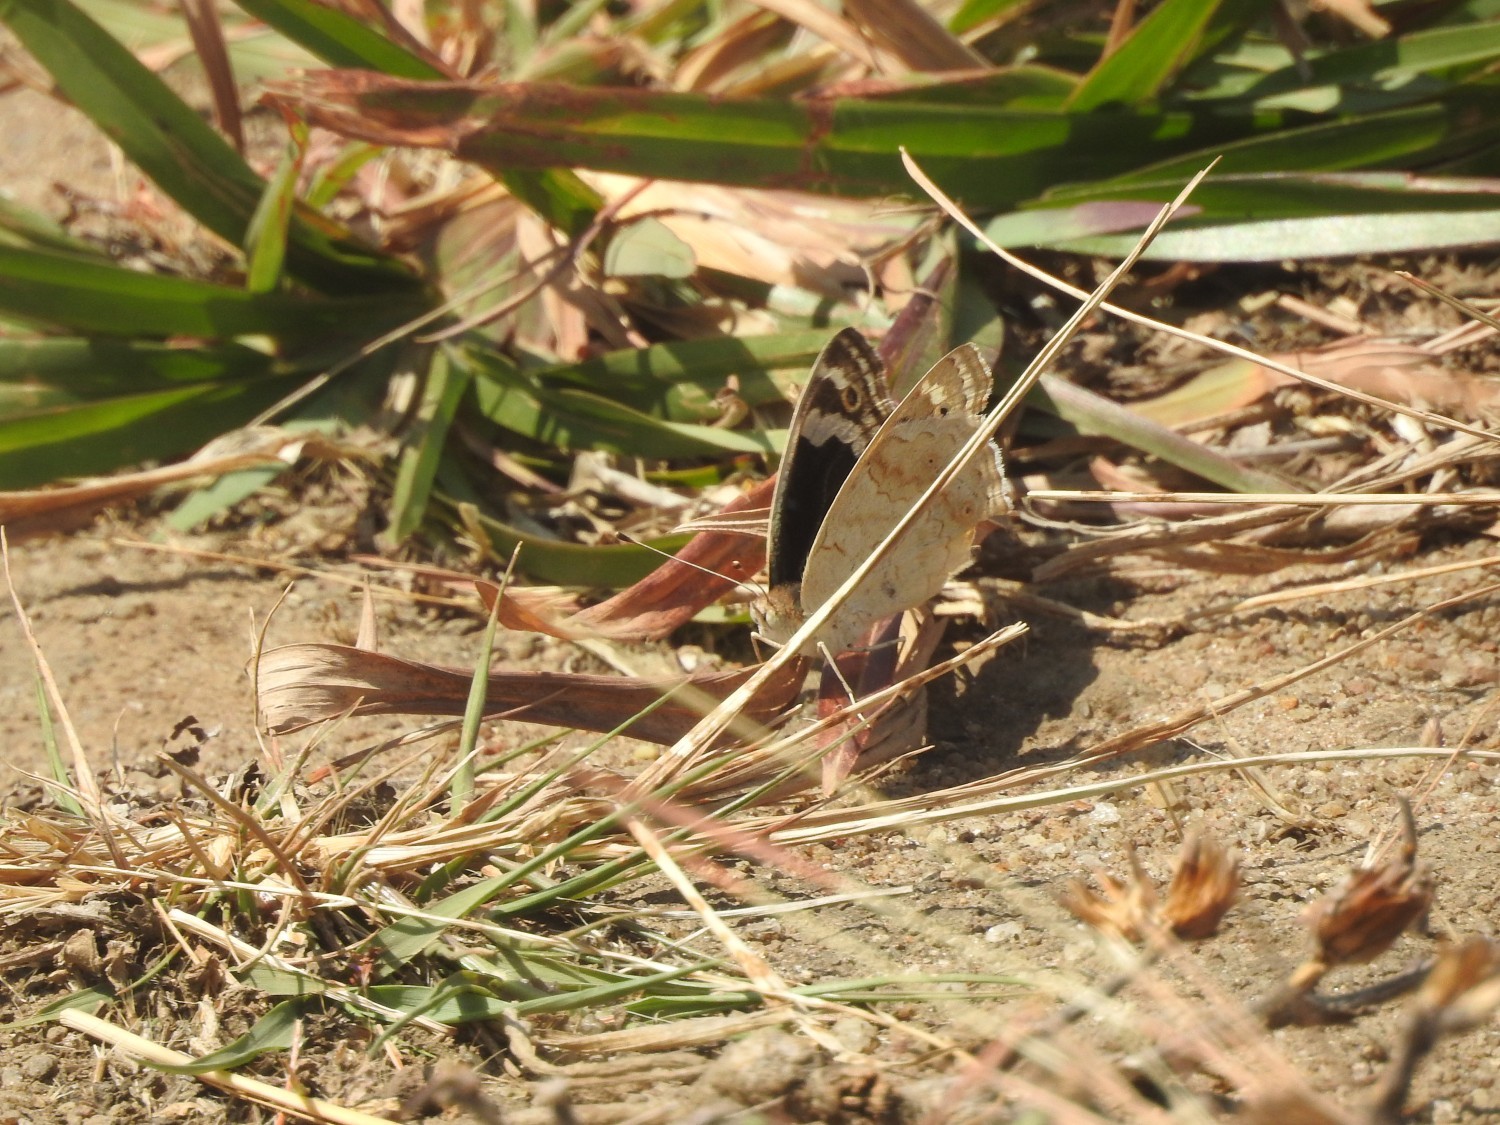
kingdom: Animalia
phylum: Arthropoda
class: Insecta
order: Lepidoptera
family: Nymphalidae
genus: Junonia
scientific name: Junonia orithya
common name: Blue pansy
